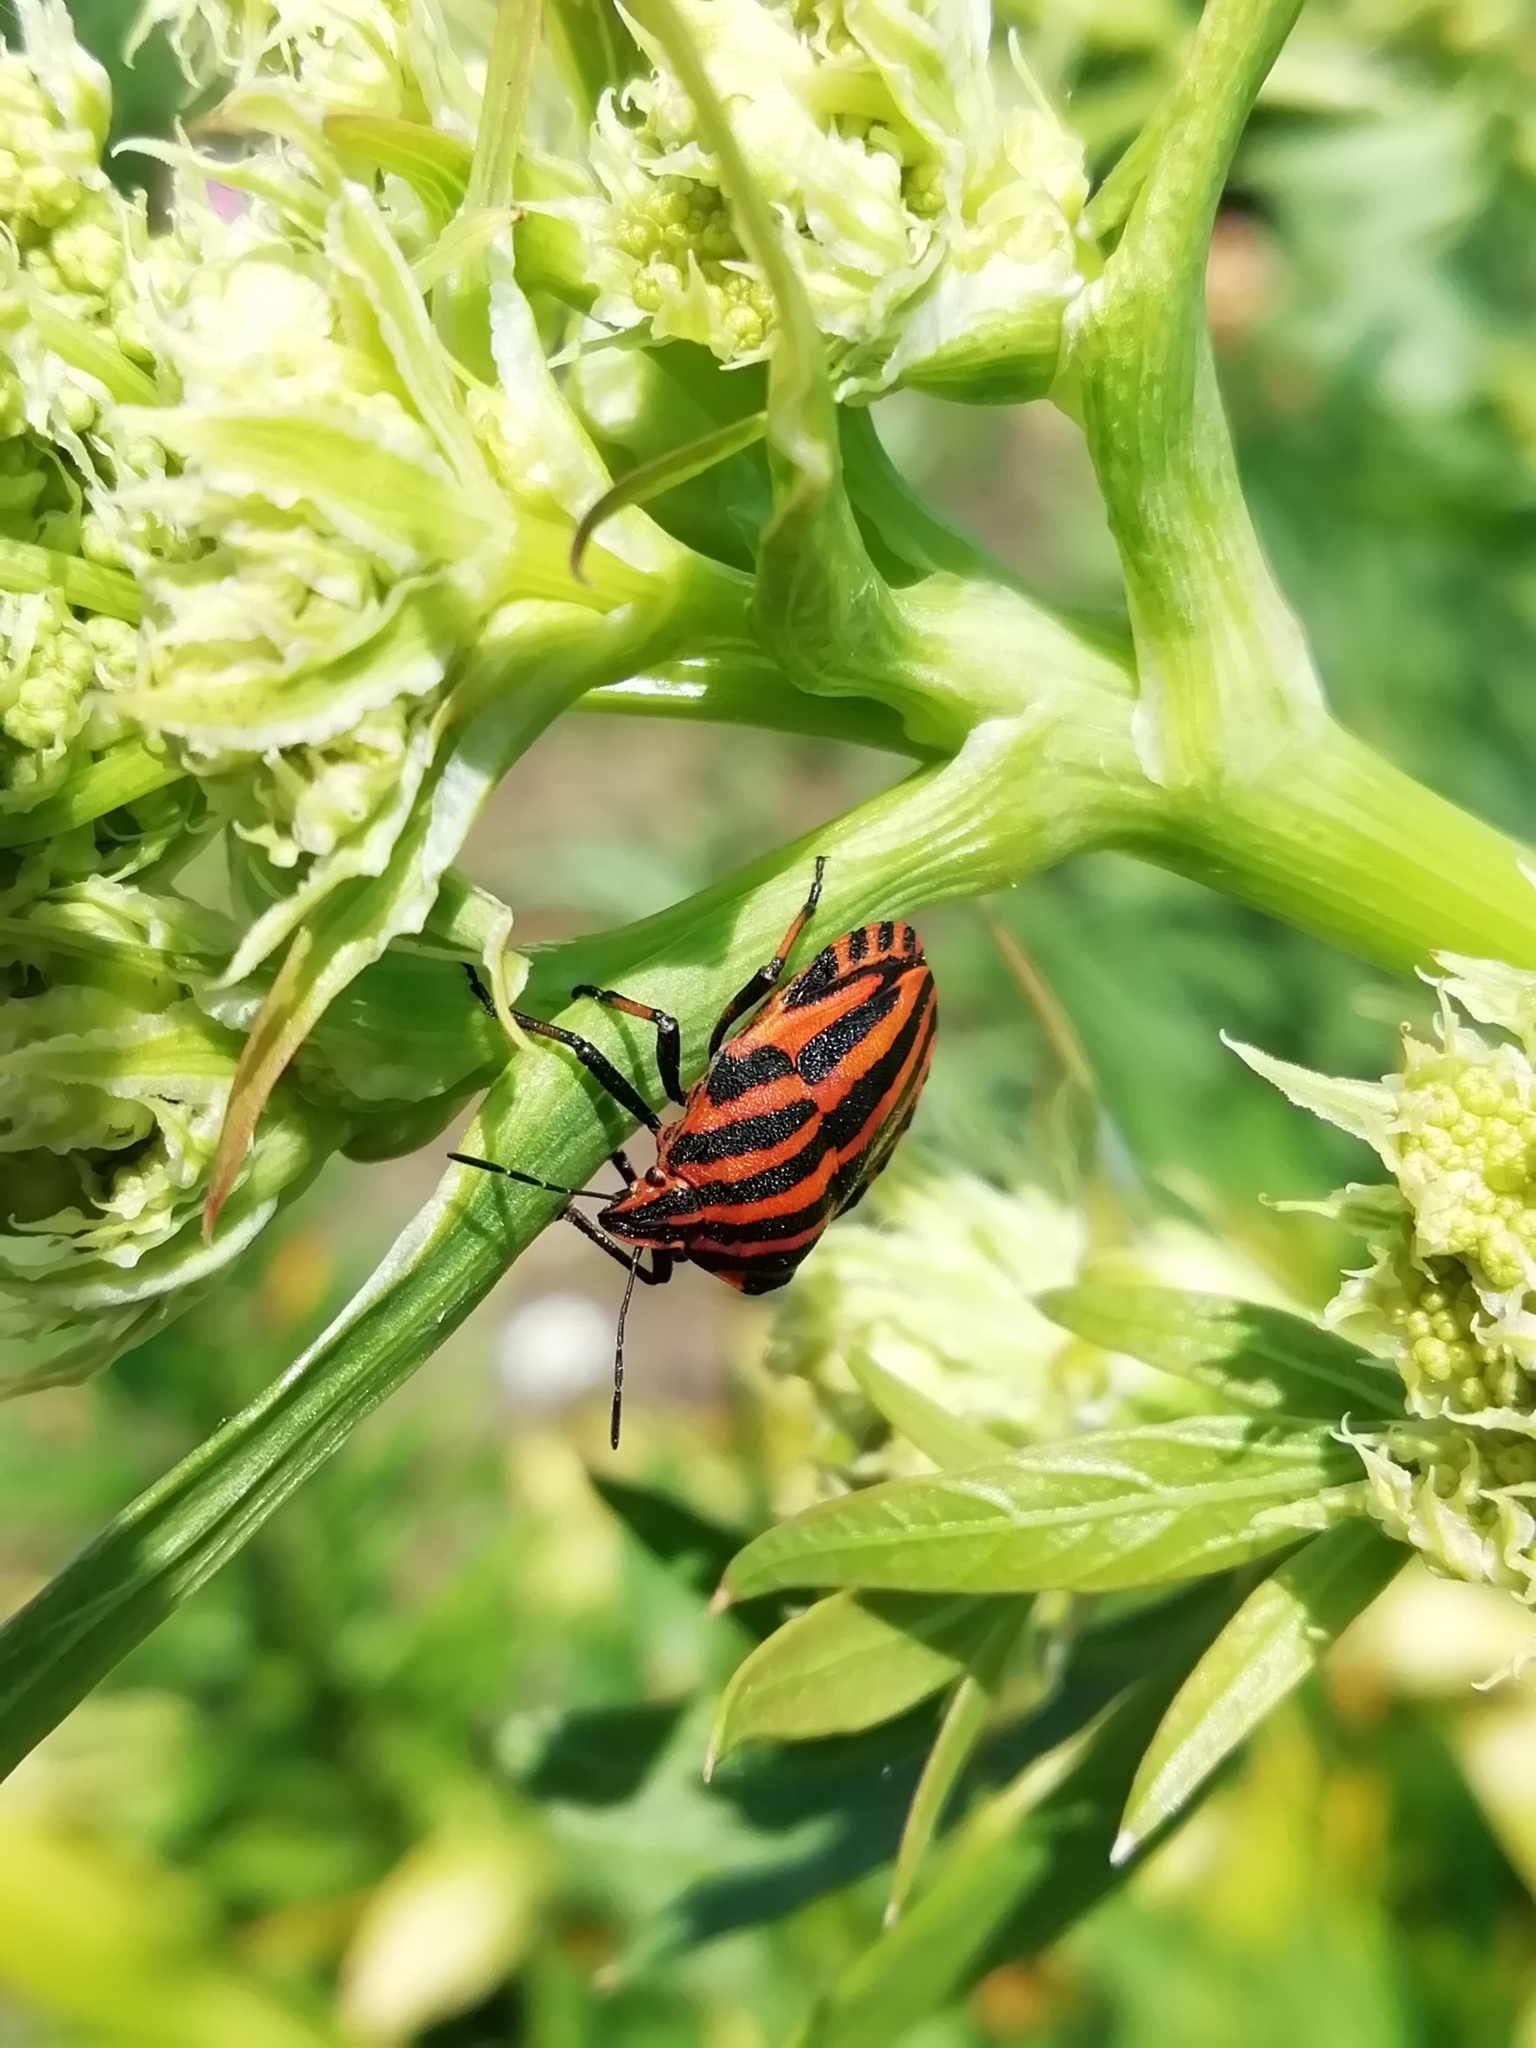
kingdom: Animalia
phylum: Arthropoda
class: Insecta
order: Hemiptera
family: Pentatomidae
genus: Graphosoma
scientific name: Graphosoma italicum
